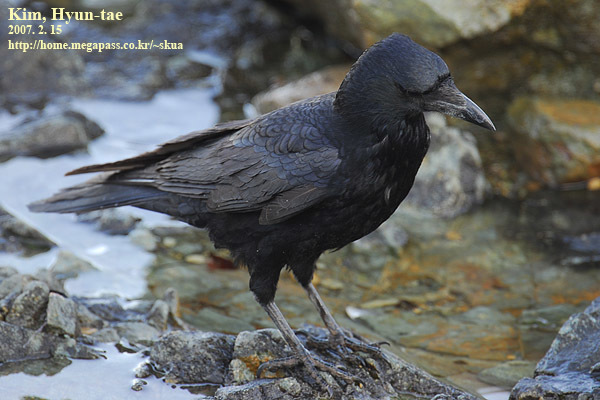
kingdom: Animalia
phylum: Chordata
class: Aves
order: Passeriformes
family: Corvidae
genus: Corvus
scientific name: Corvus corone
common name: Carrion crow
